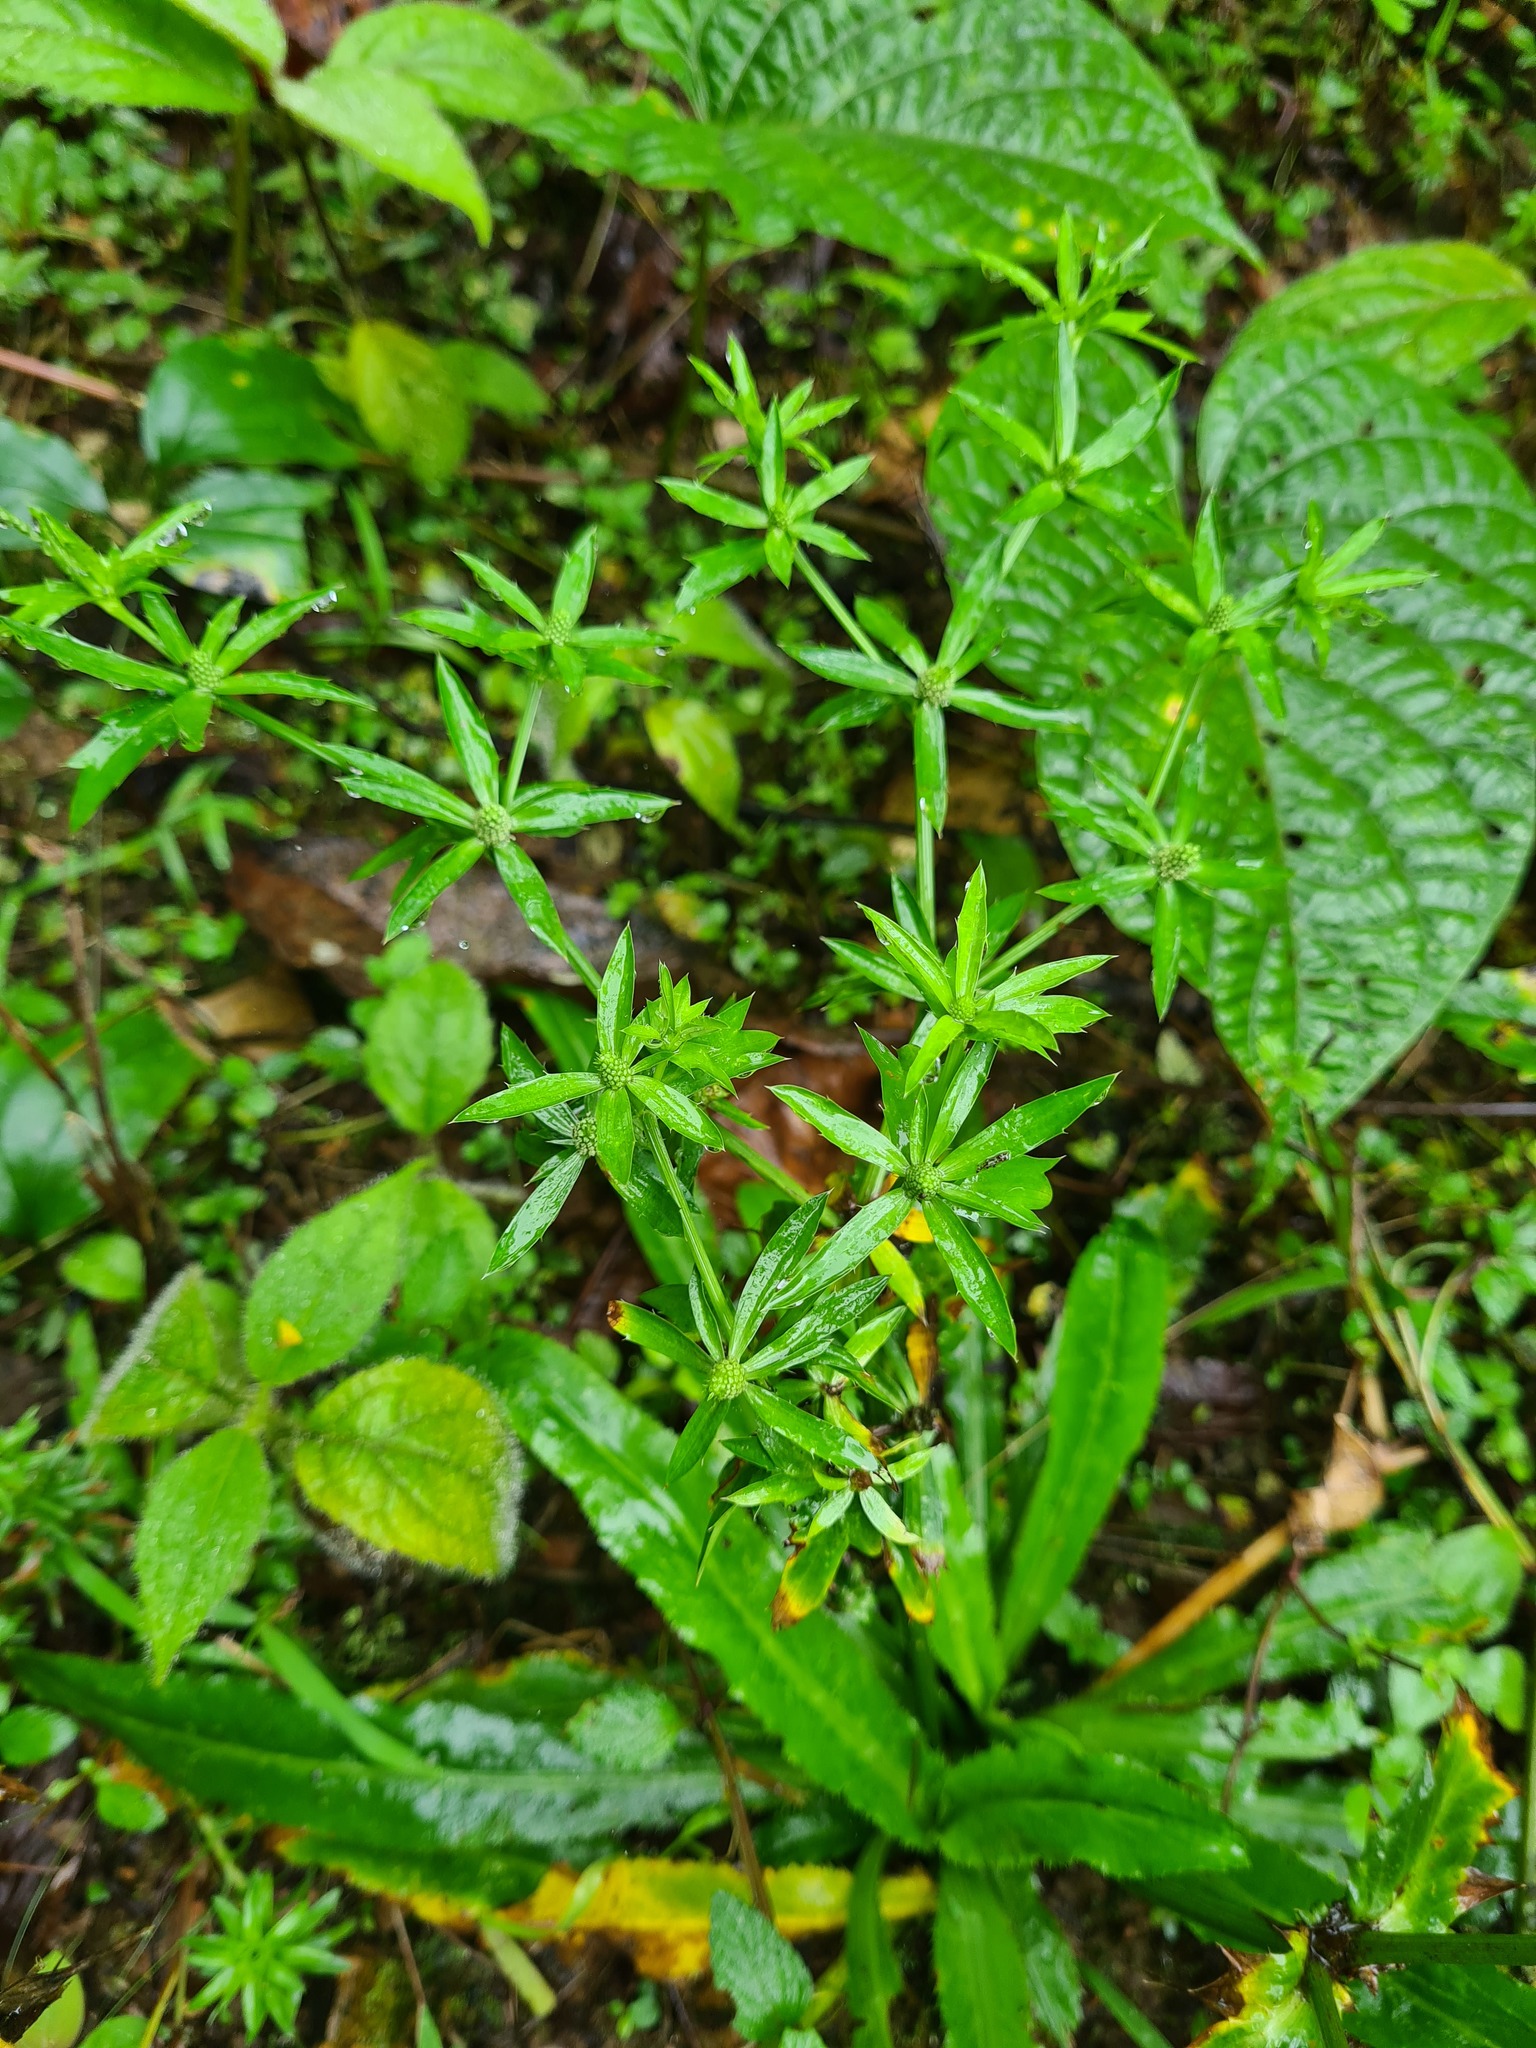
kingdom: Plantae
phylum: Tracheophyta
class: Magnoliopsida
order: Apiales
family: Apiaceae
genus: Eryngium
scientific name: Eryngium foetidum
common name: Fitweed
